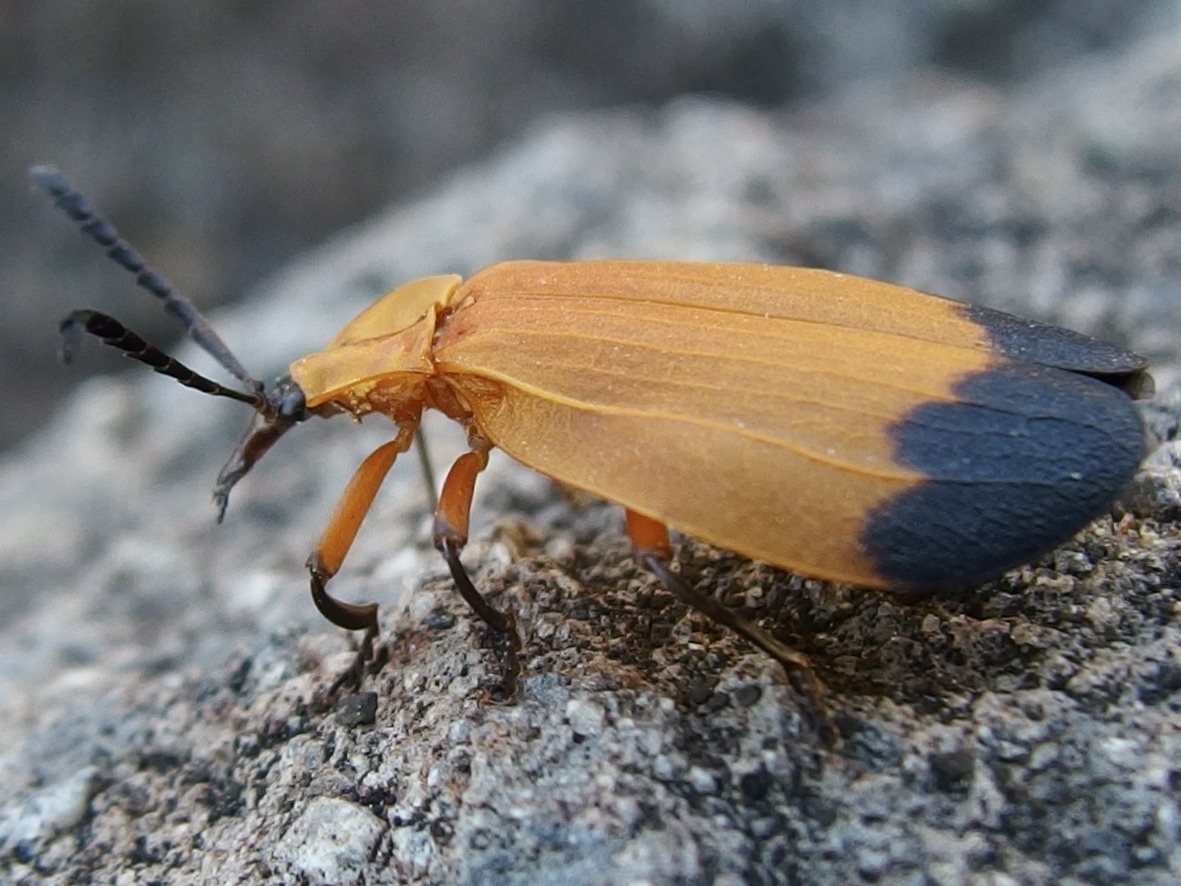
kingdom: Animalia
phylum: Arthropoda
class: Insecta
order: Coleoptera
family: Lycidae
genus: Lycus
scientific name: Lycus fernandezi
